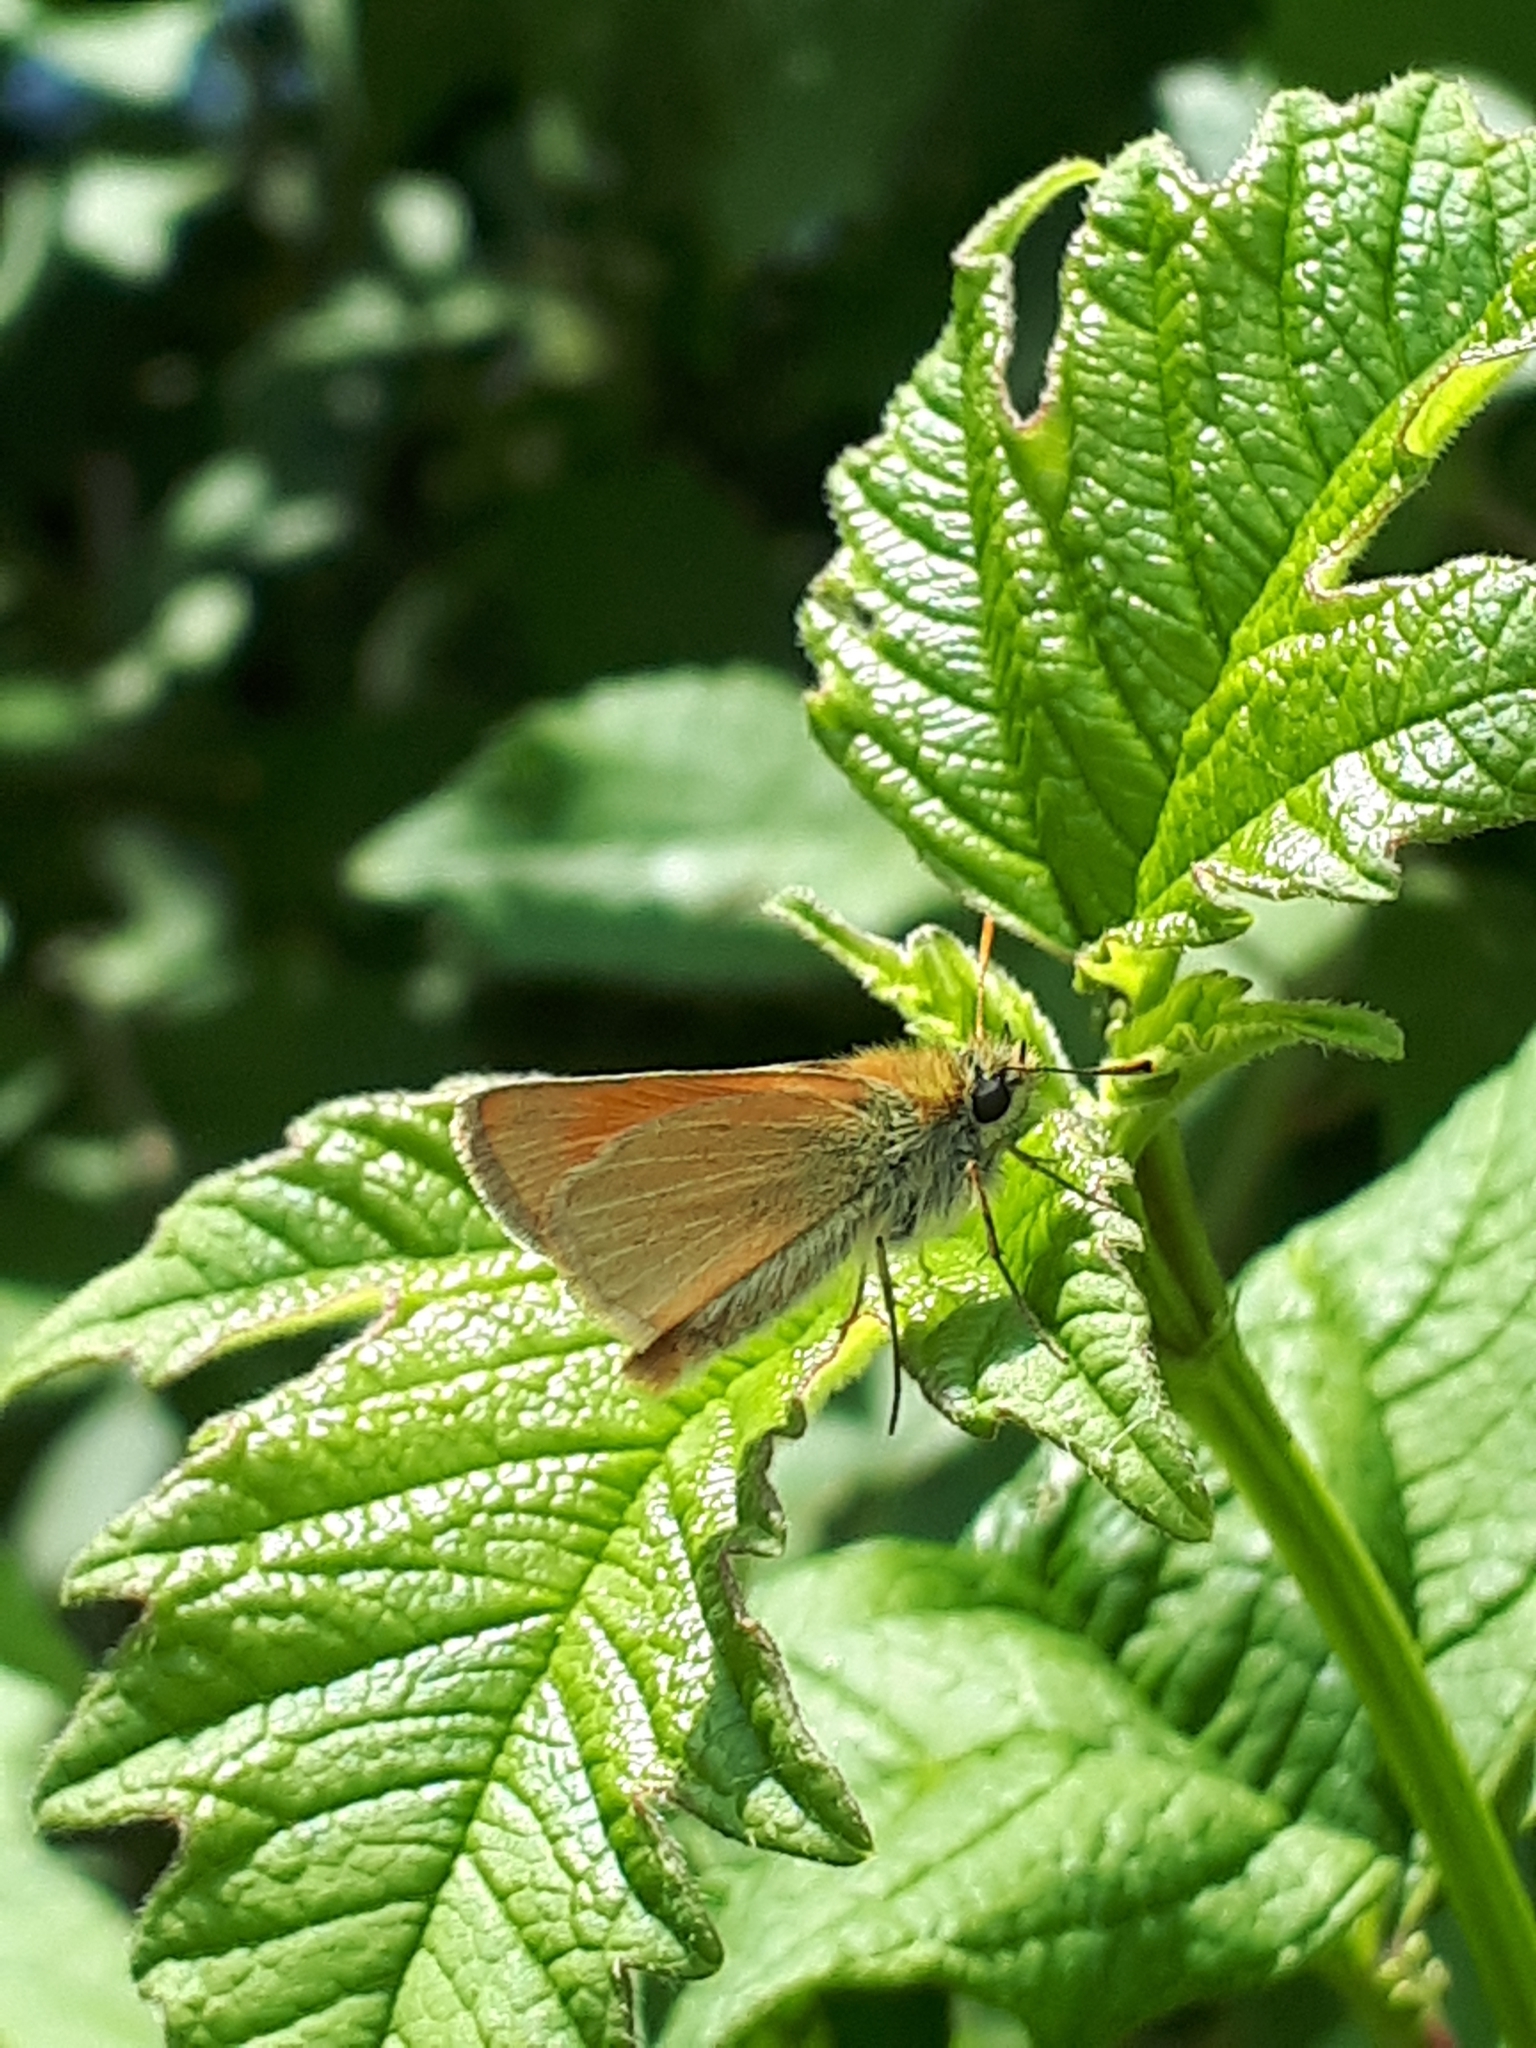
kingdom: Animalia
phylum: Arthropoda
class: Insecta
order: Lepidoptera
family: Hesperiidae
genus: Thymelicus
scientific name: Thymelicus sylvestris
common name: Small skipper
